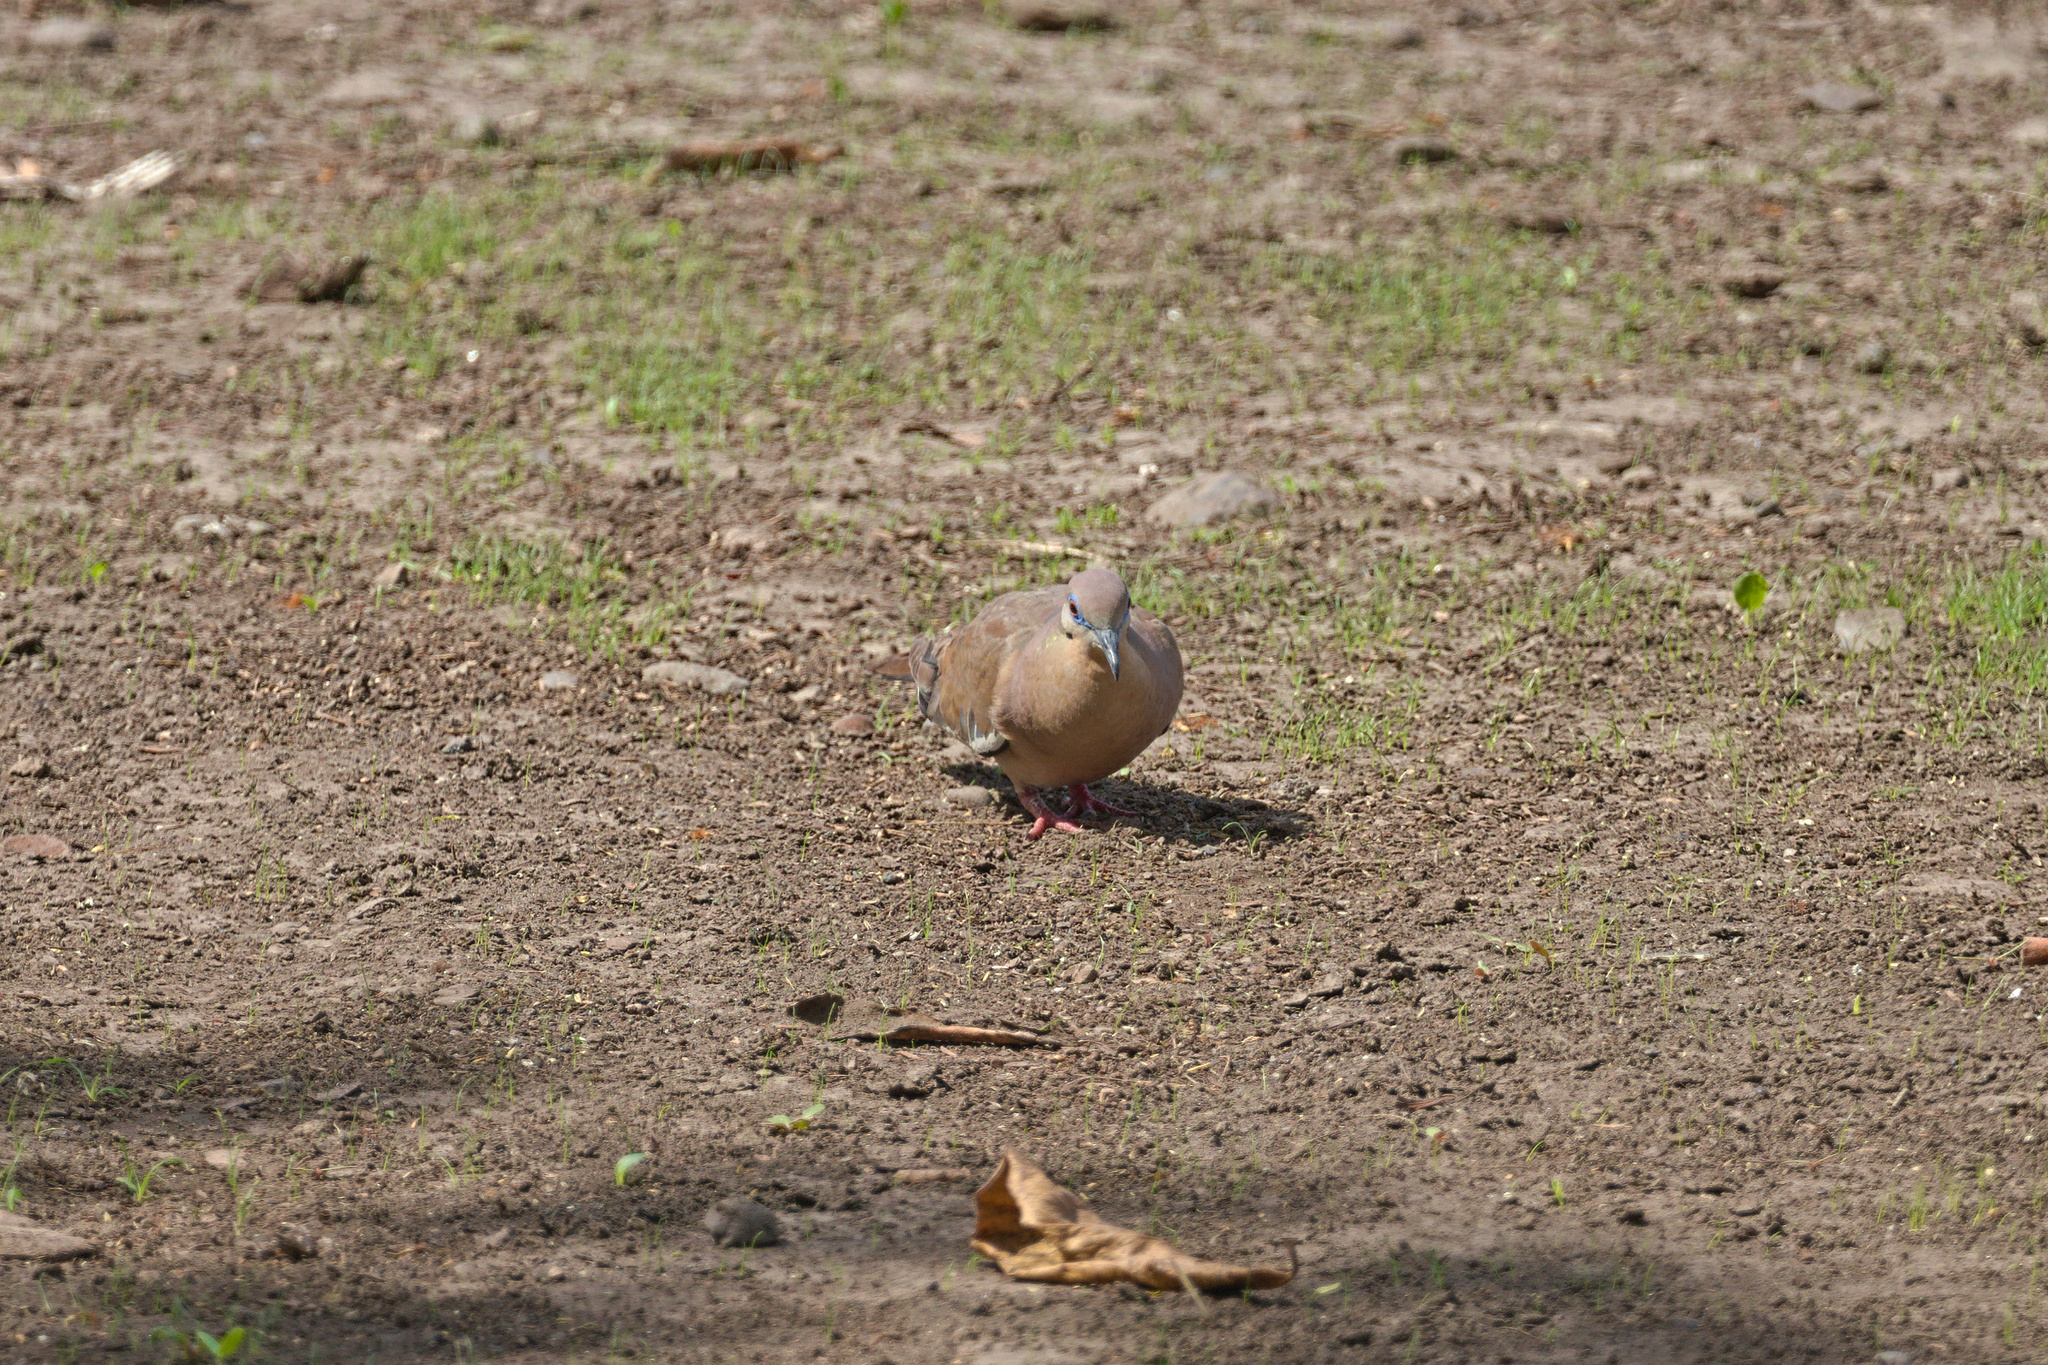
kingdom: Animalia
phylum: Chordata
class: Aves
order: Columbiformes
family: Columbidae
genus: Zenaida
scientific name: Zenaida asiatica
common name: White-winged dove
